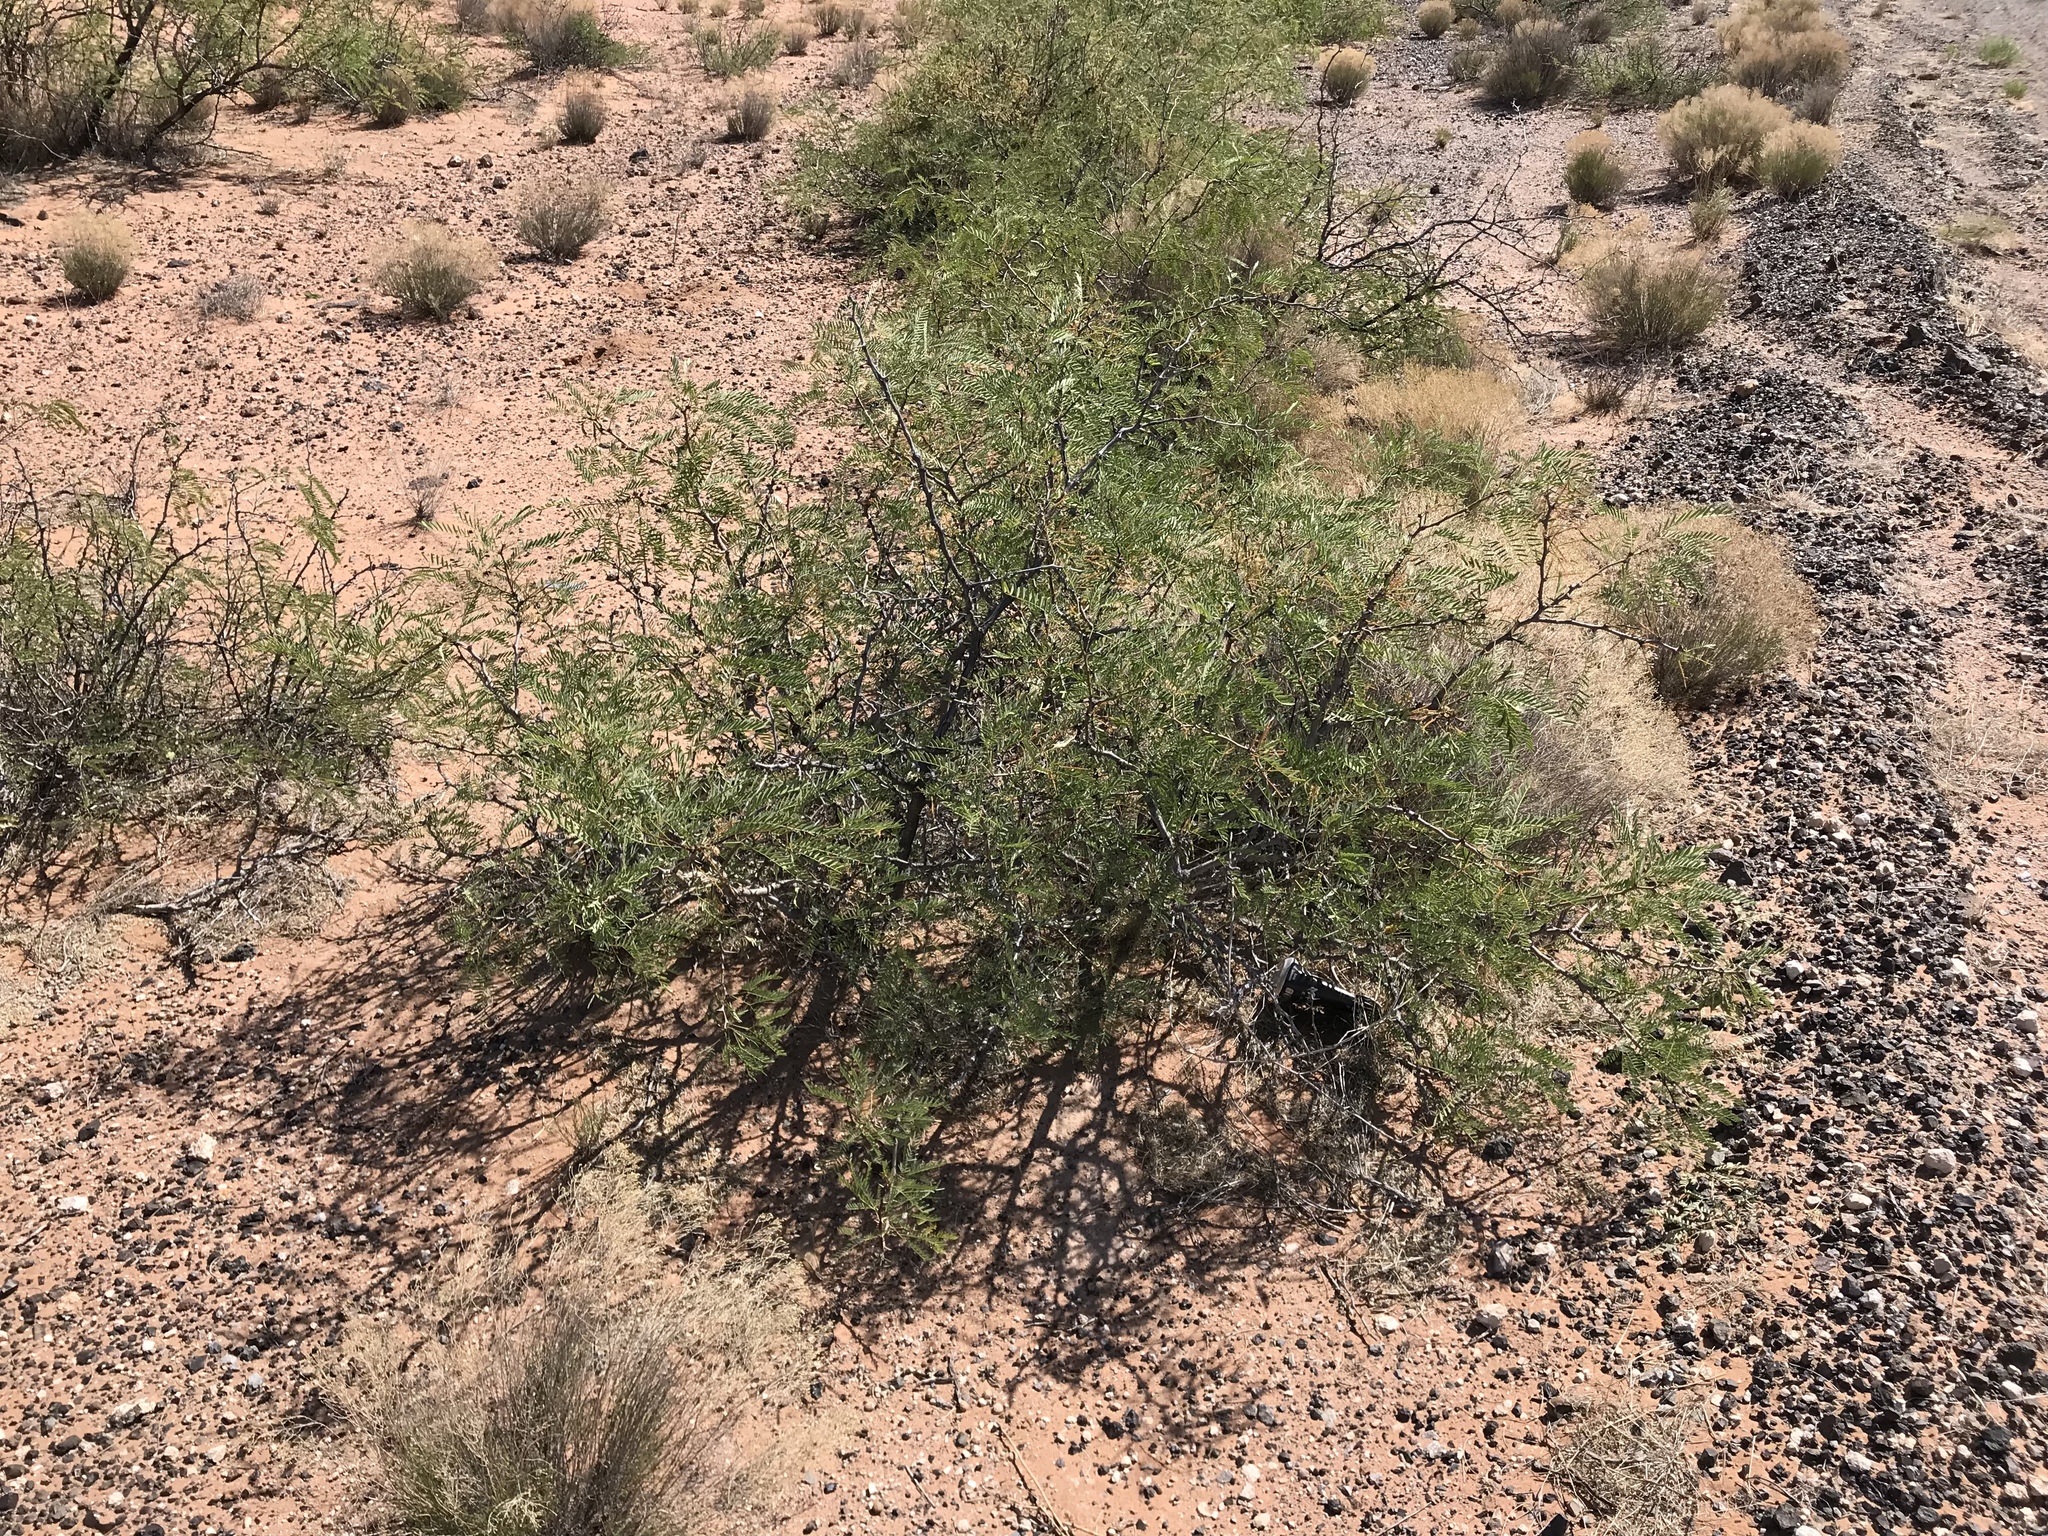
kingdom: Plantae
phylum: Tracheophyta
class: Magnoliopsida
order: Fabales
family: Fabaceae
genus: Prosopis
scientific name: Prosopis glandulosa
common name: Honey mesquite
